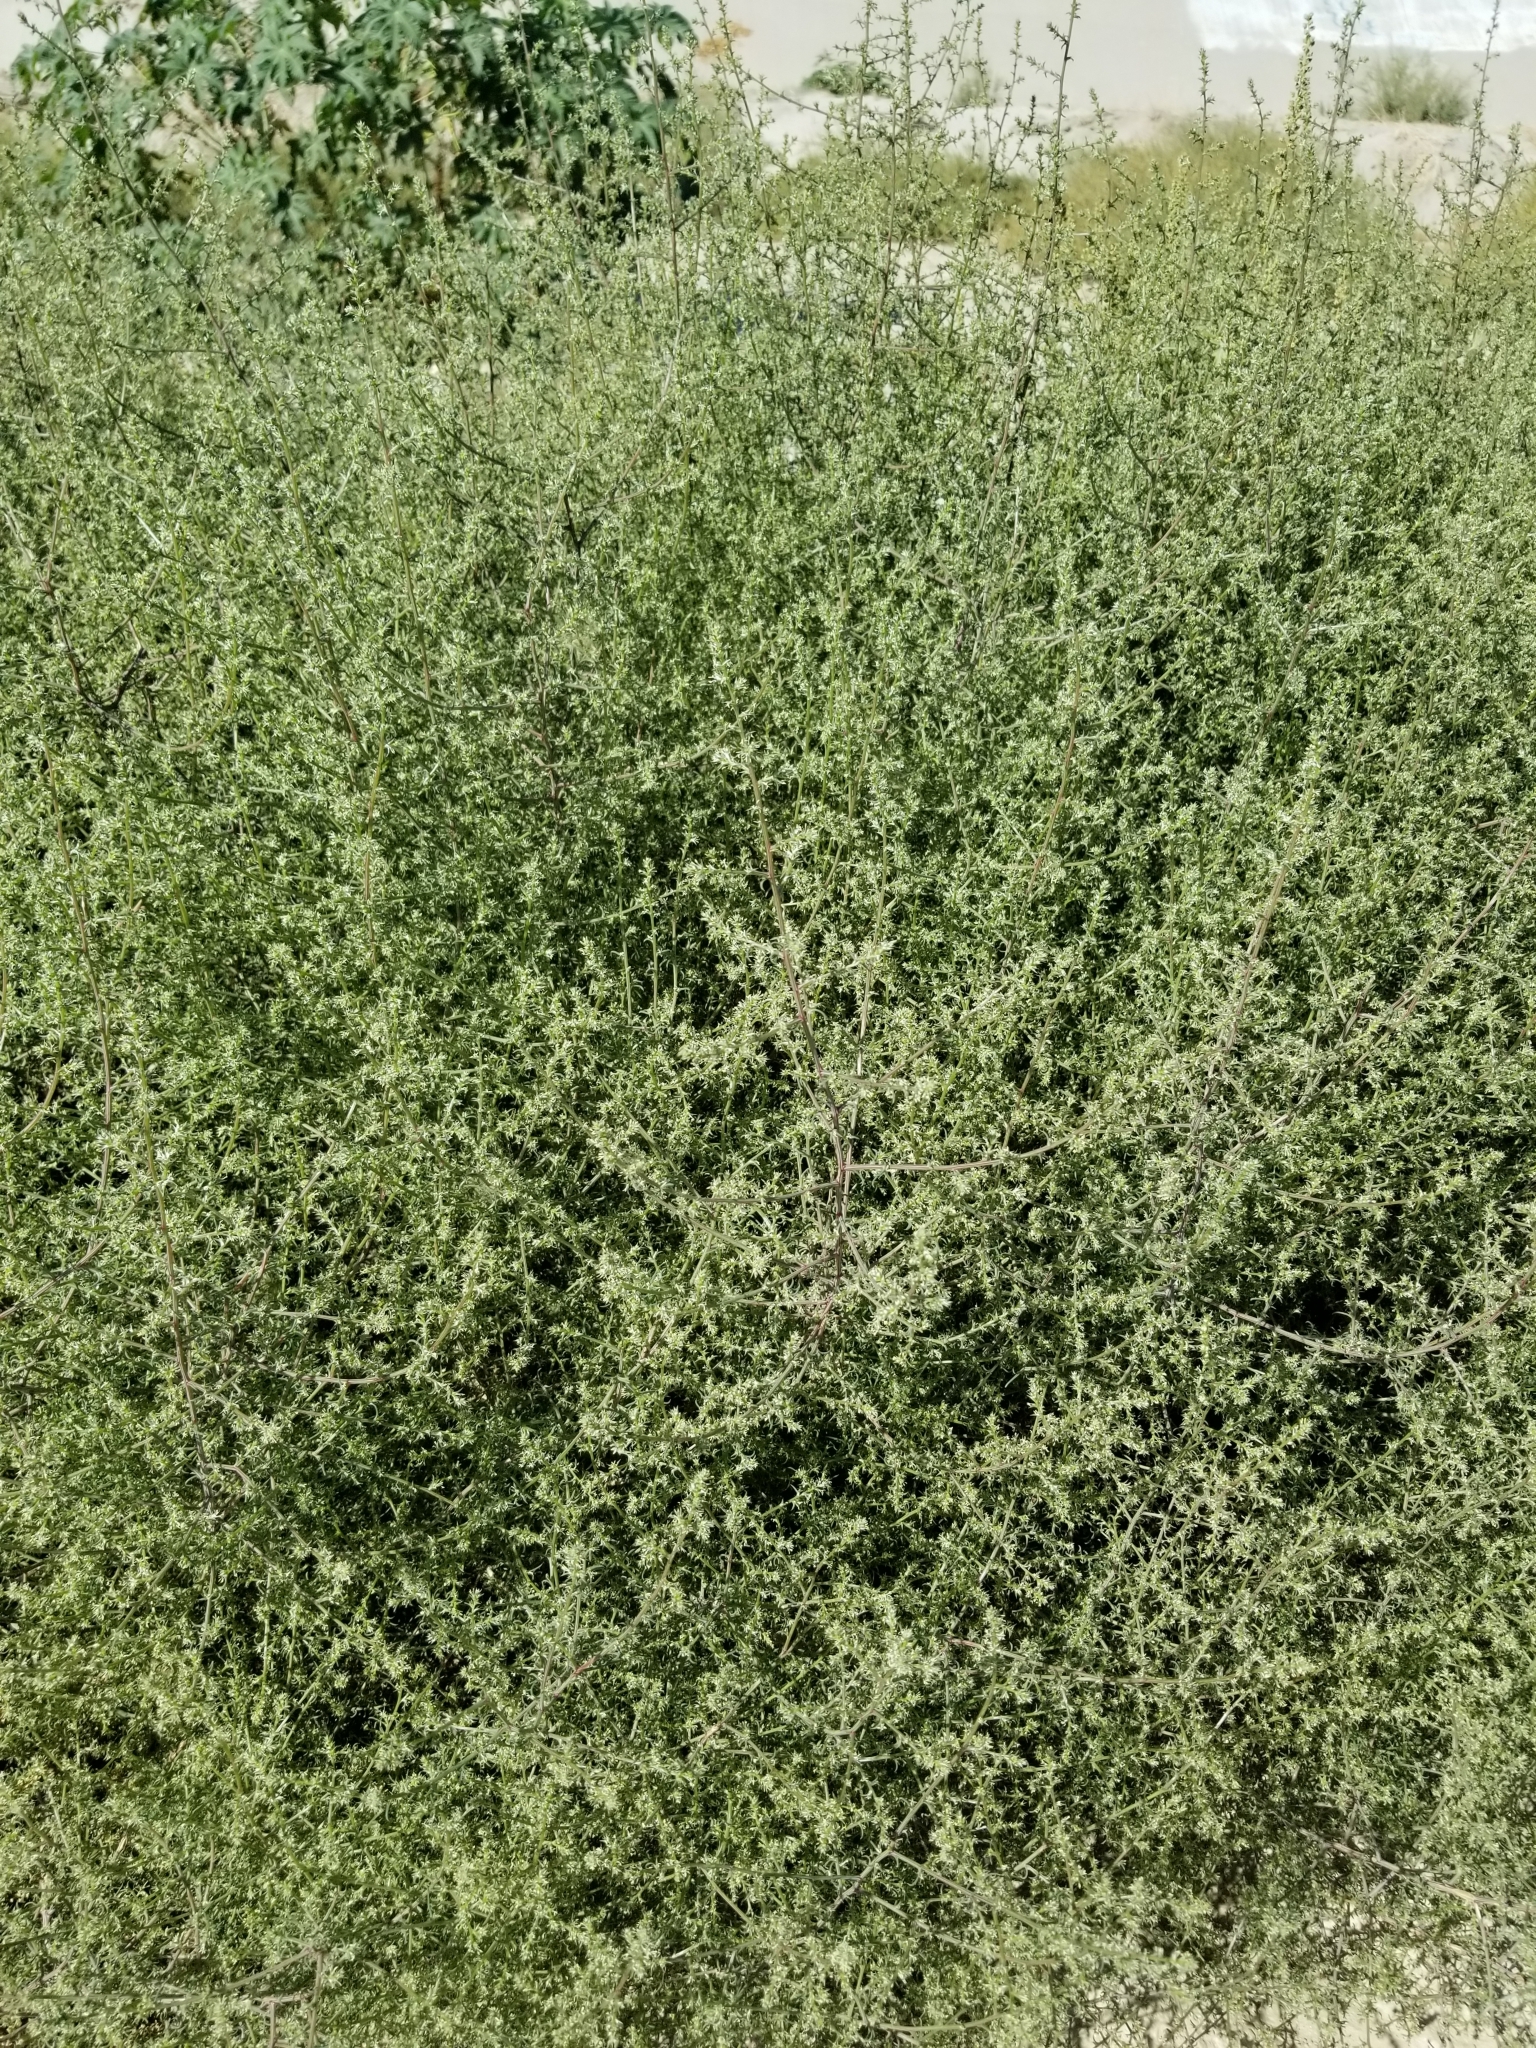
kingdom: Plantae
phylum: Tracheophyta
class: Magnoliopsida
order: Caryophyllales
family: Amaranthaceae
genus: Salsola
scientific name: Salsola tragus
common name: Prickly russian thistle
